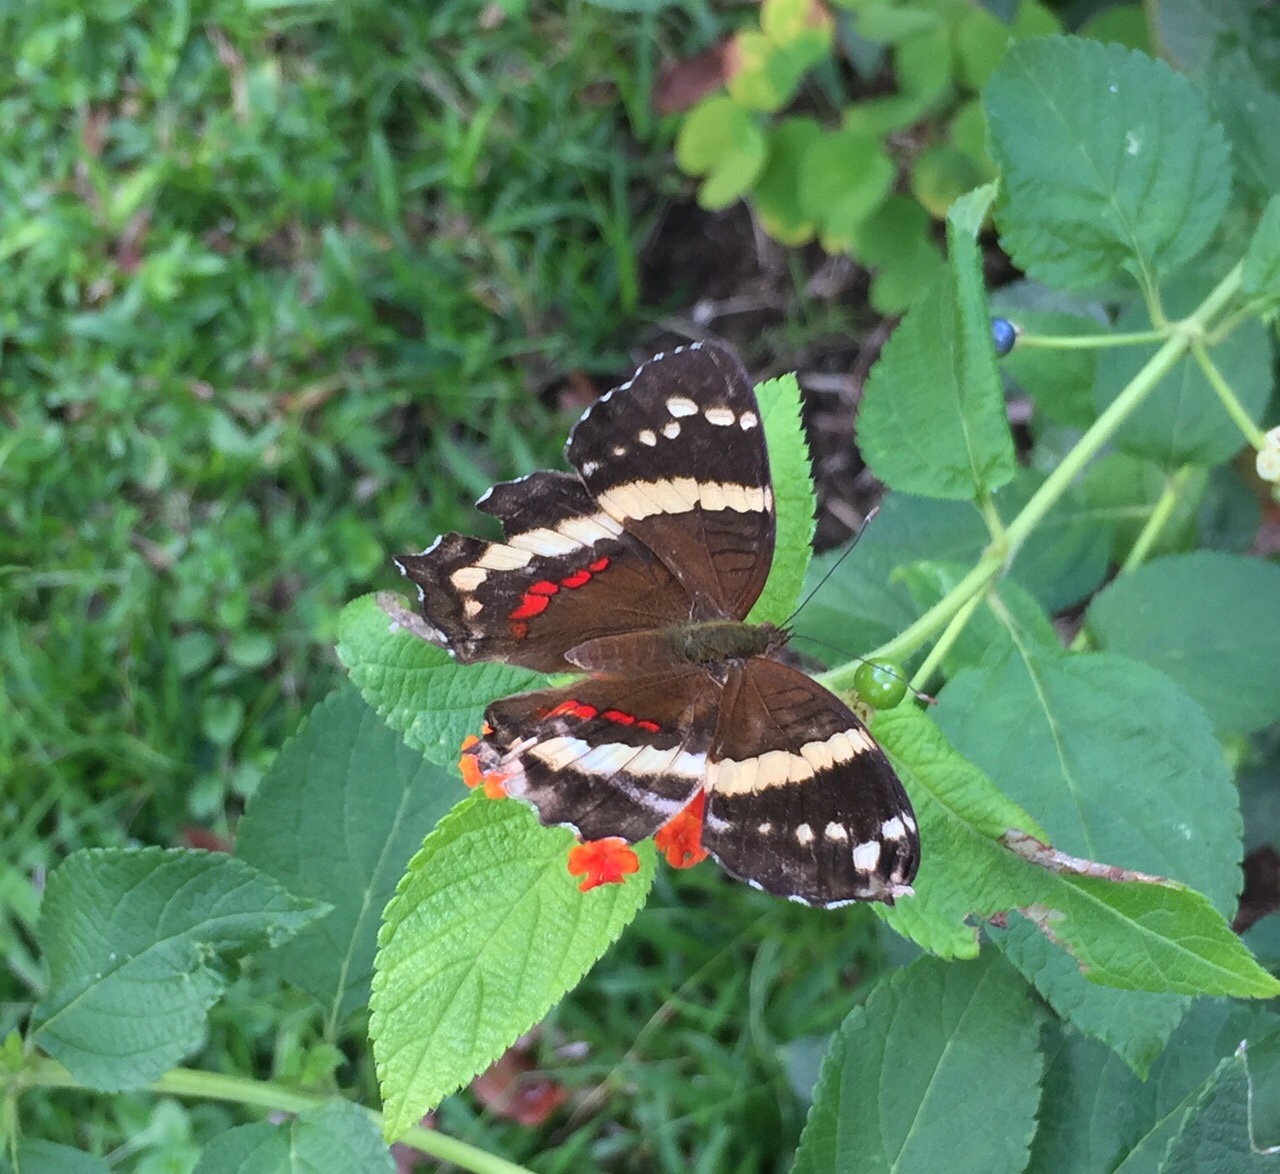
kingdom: Animalia
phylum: Arthropoda
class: Insecta
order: Lepidoptera
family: Nymphalidae
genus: Anartia
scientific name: Anartia fatima
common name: Banded peacock
